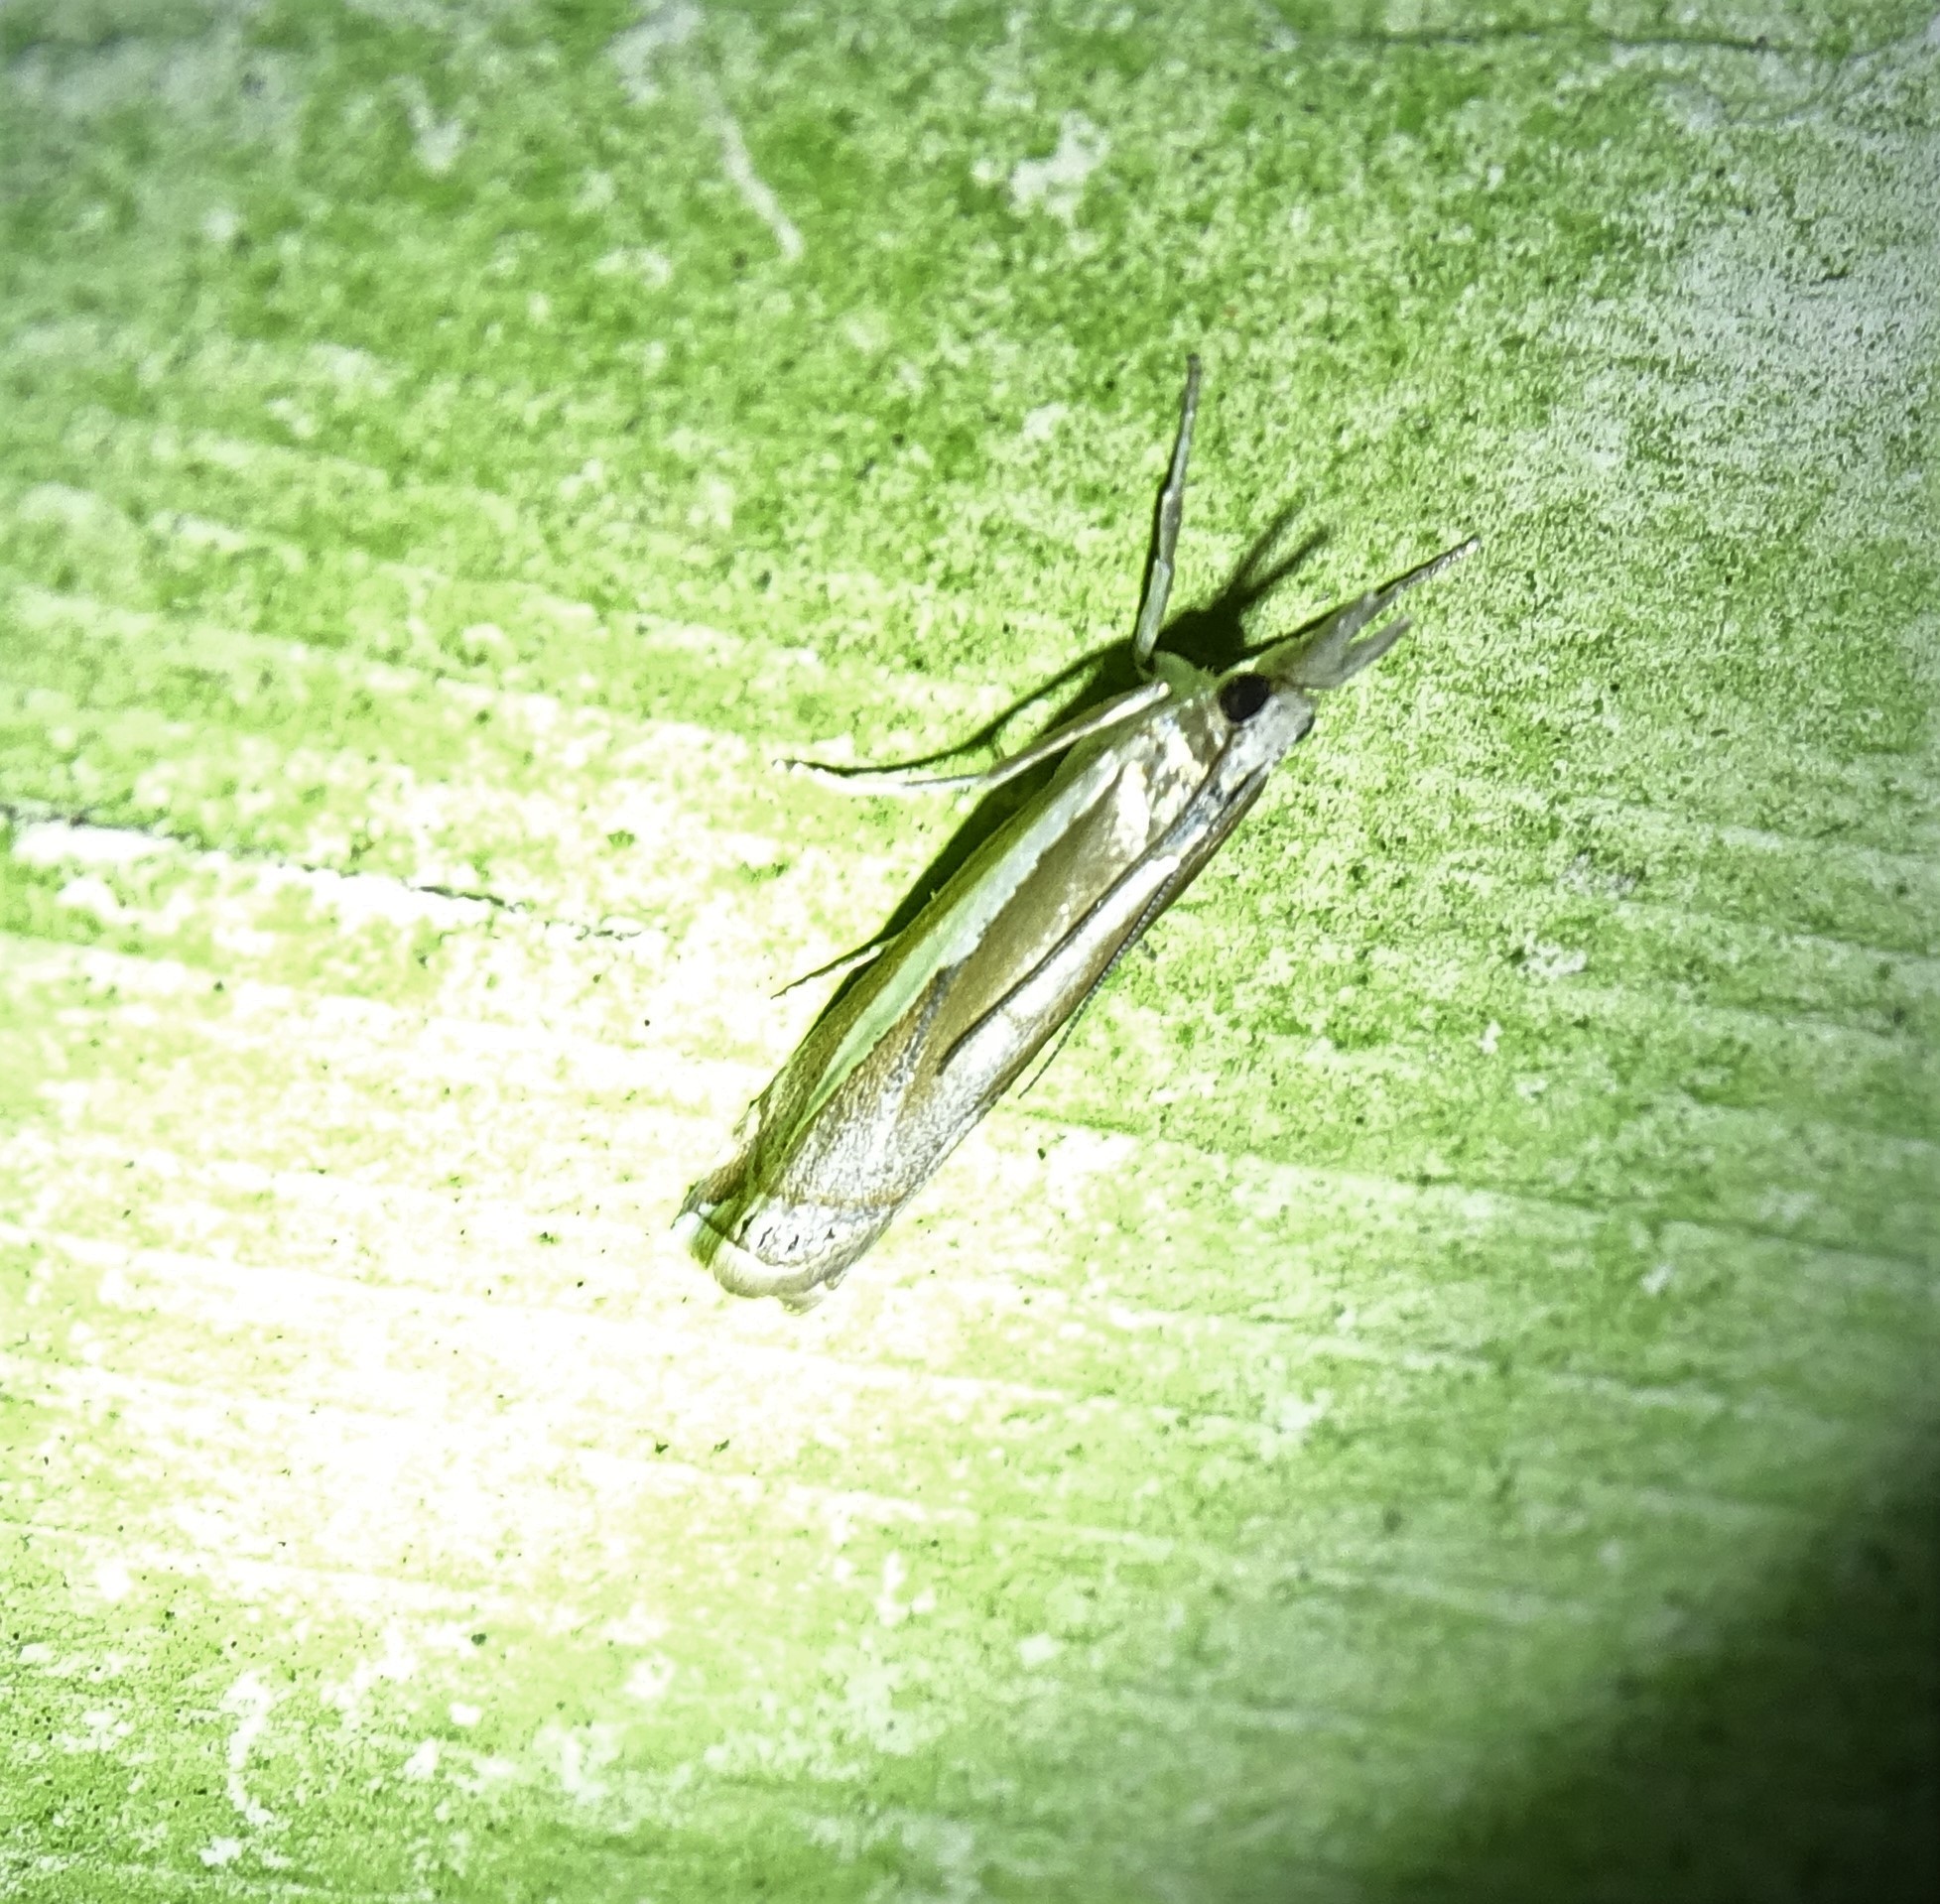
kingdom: Animalia
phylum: Arthropoda
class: Insecta
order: Lepidoptera
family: Crambidae
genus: Crambus
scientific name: Crambus praefectellus
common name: Common grass-veneer
